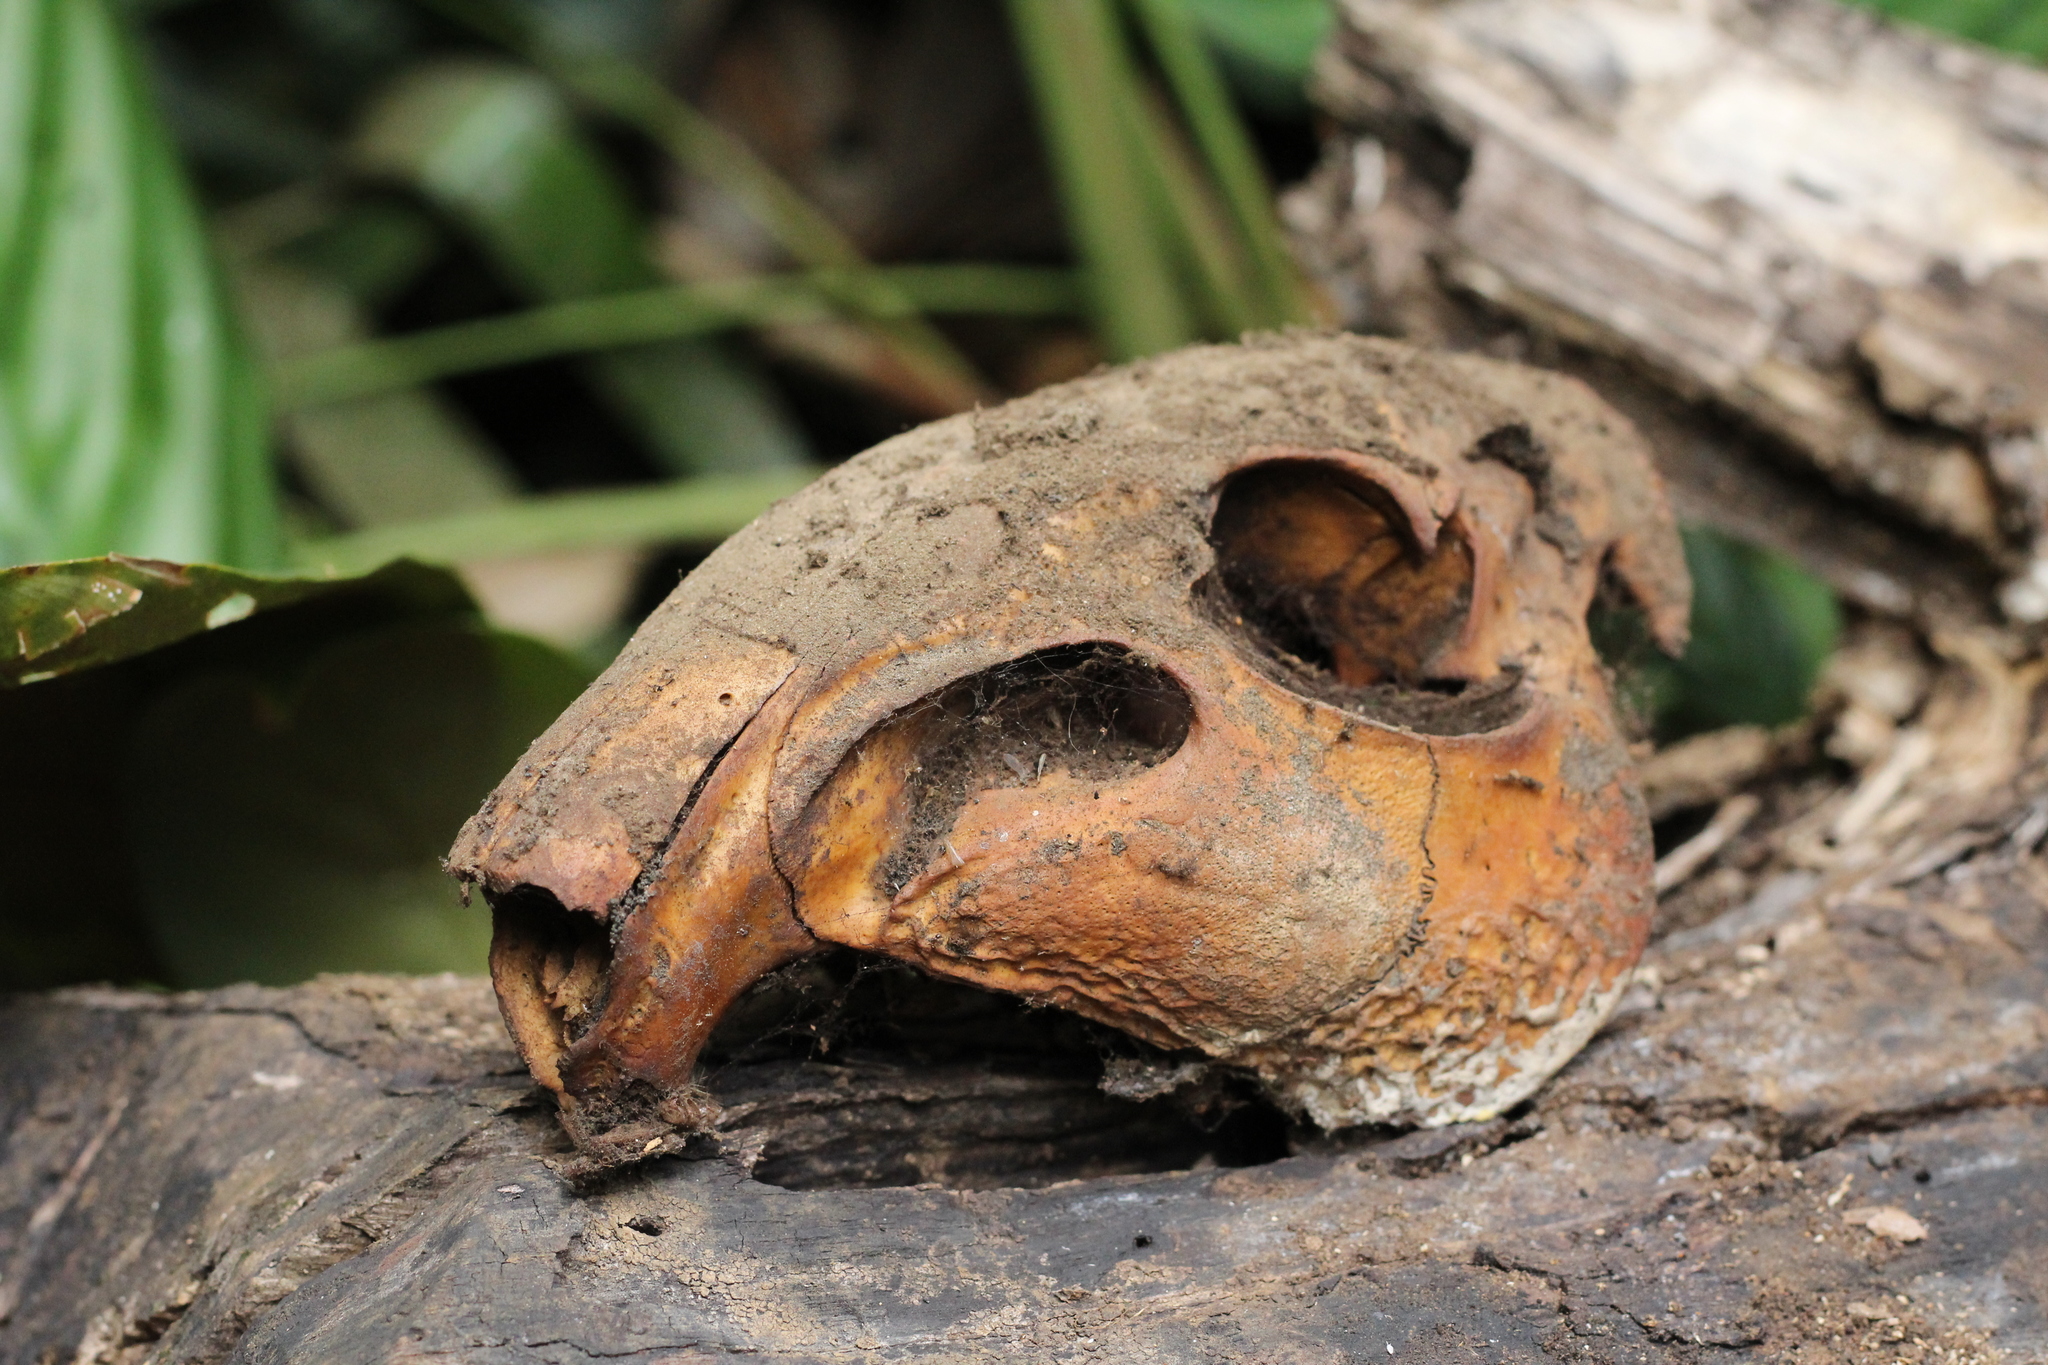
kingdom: Animalia
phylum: Chordata
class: Mammalia
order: Rodentia
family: Cuniculidae
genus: Cuniculus
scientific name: Cuniculus paca
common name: Lowland paca
